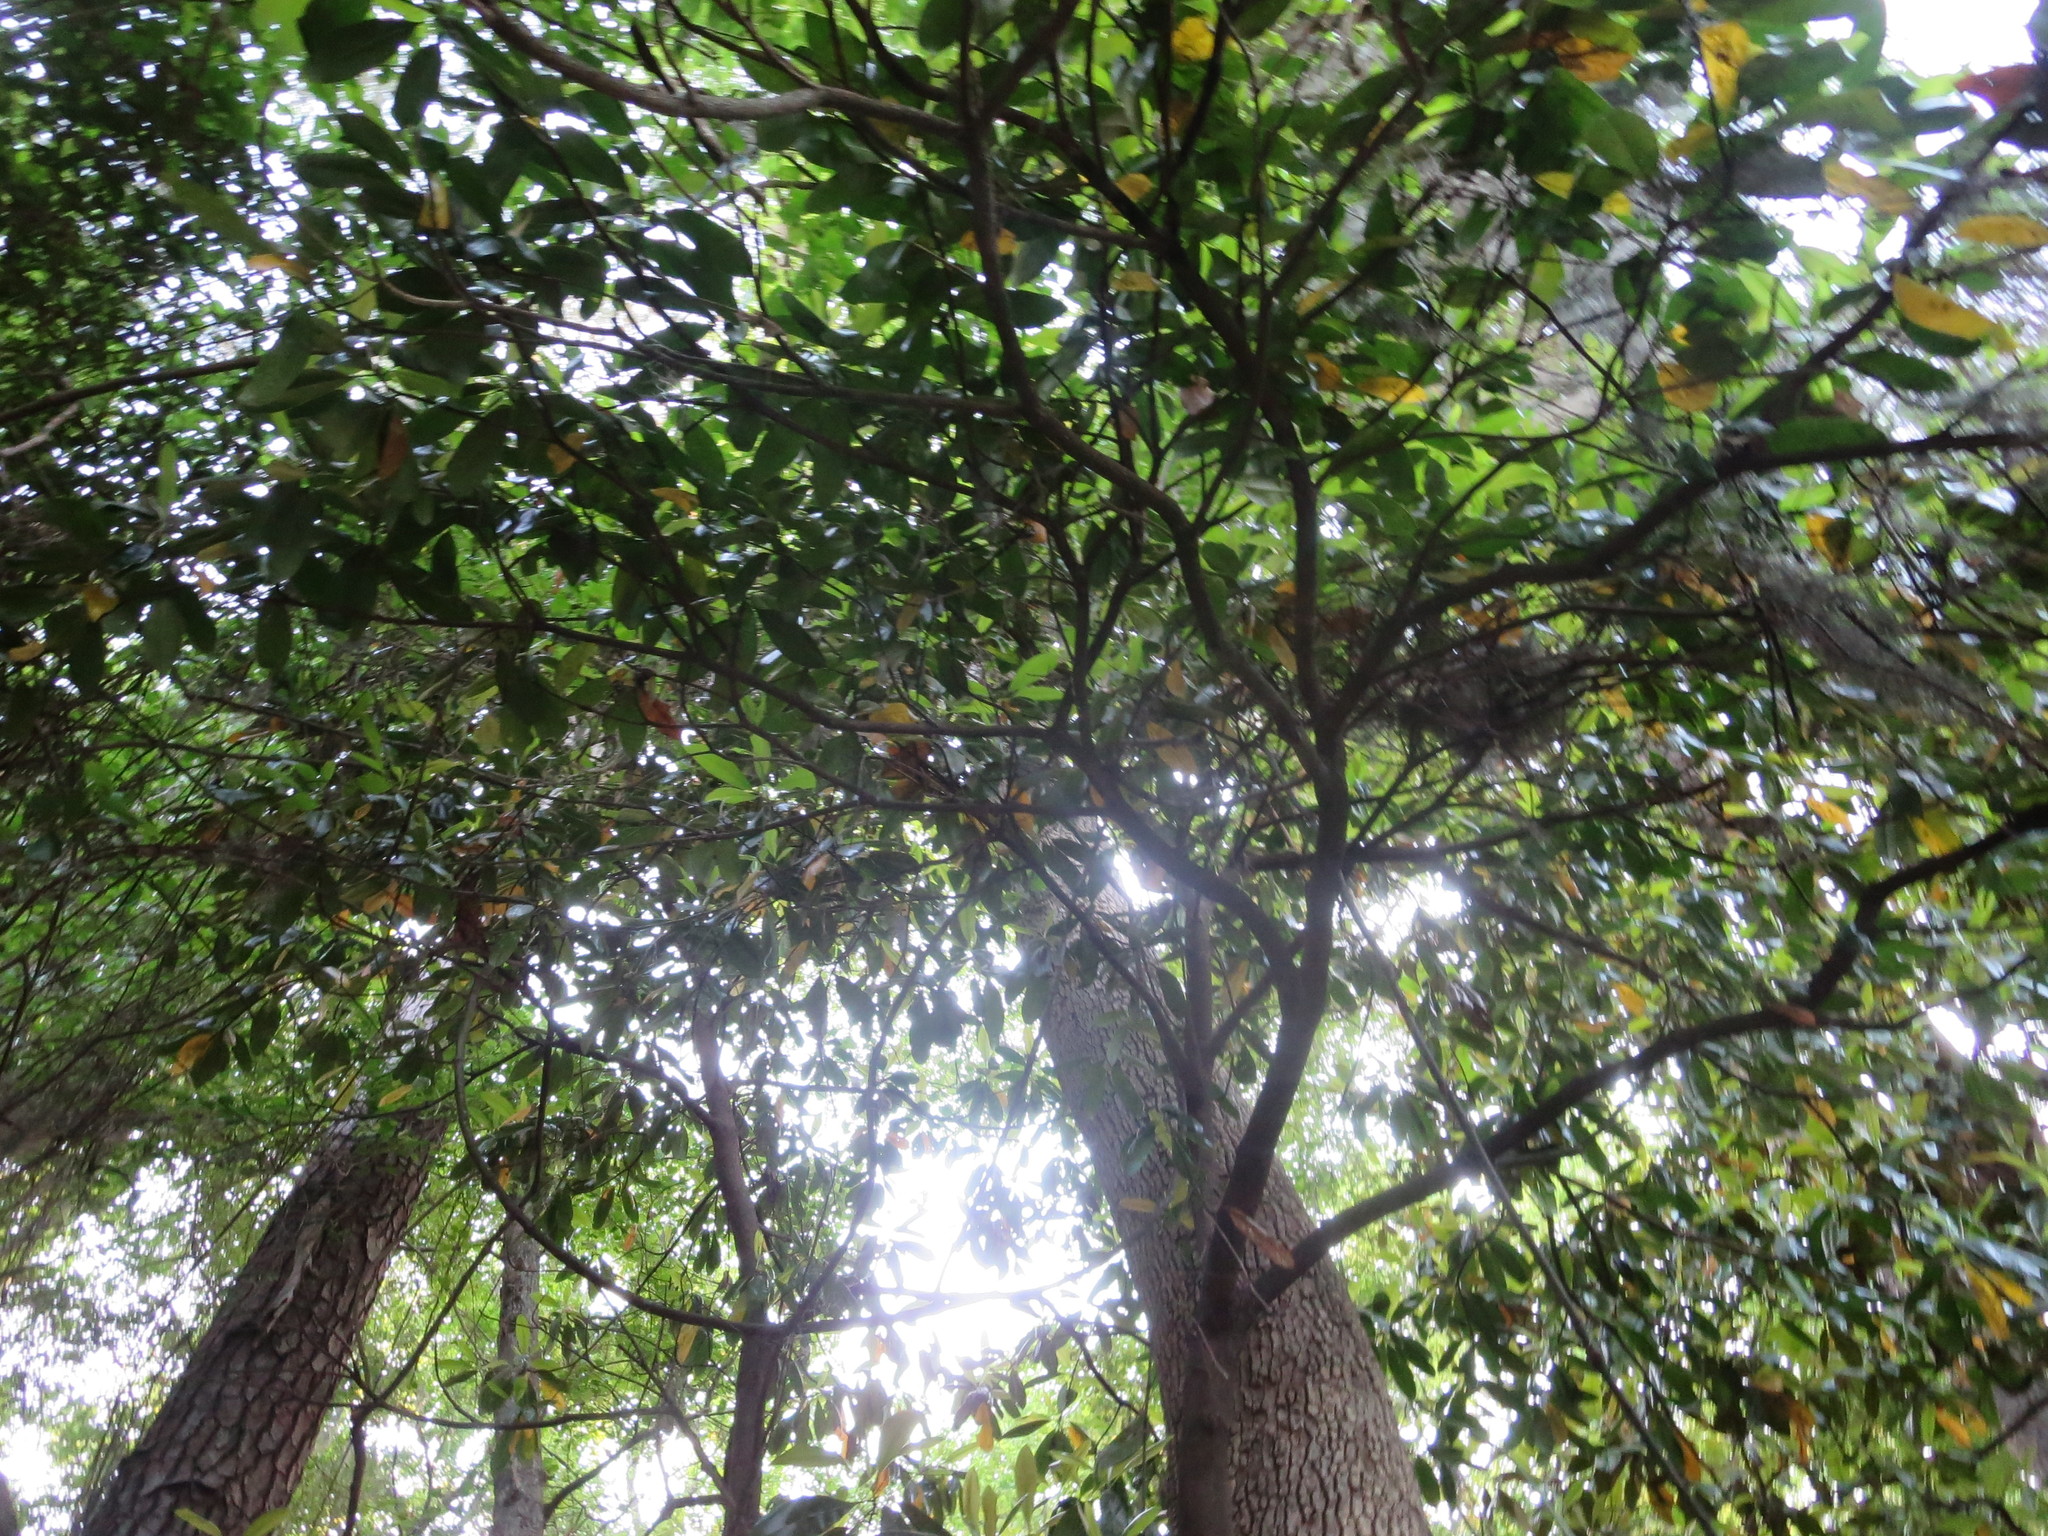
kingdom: Plantae
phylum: Tracheophyta
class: Magnoliopsida
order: Magnoliales
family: Magnoliaceae
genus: Magnolia
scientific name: Magnolia grandiflora
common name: Southern magnolia
